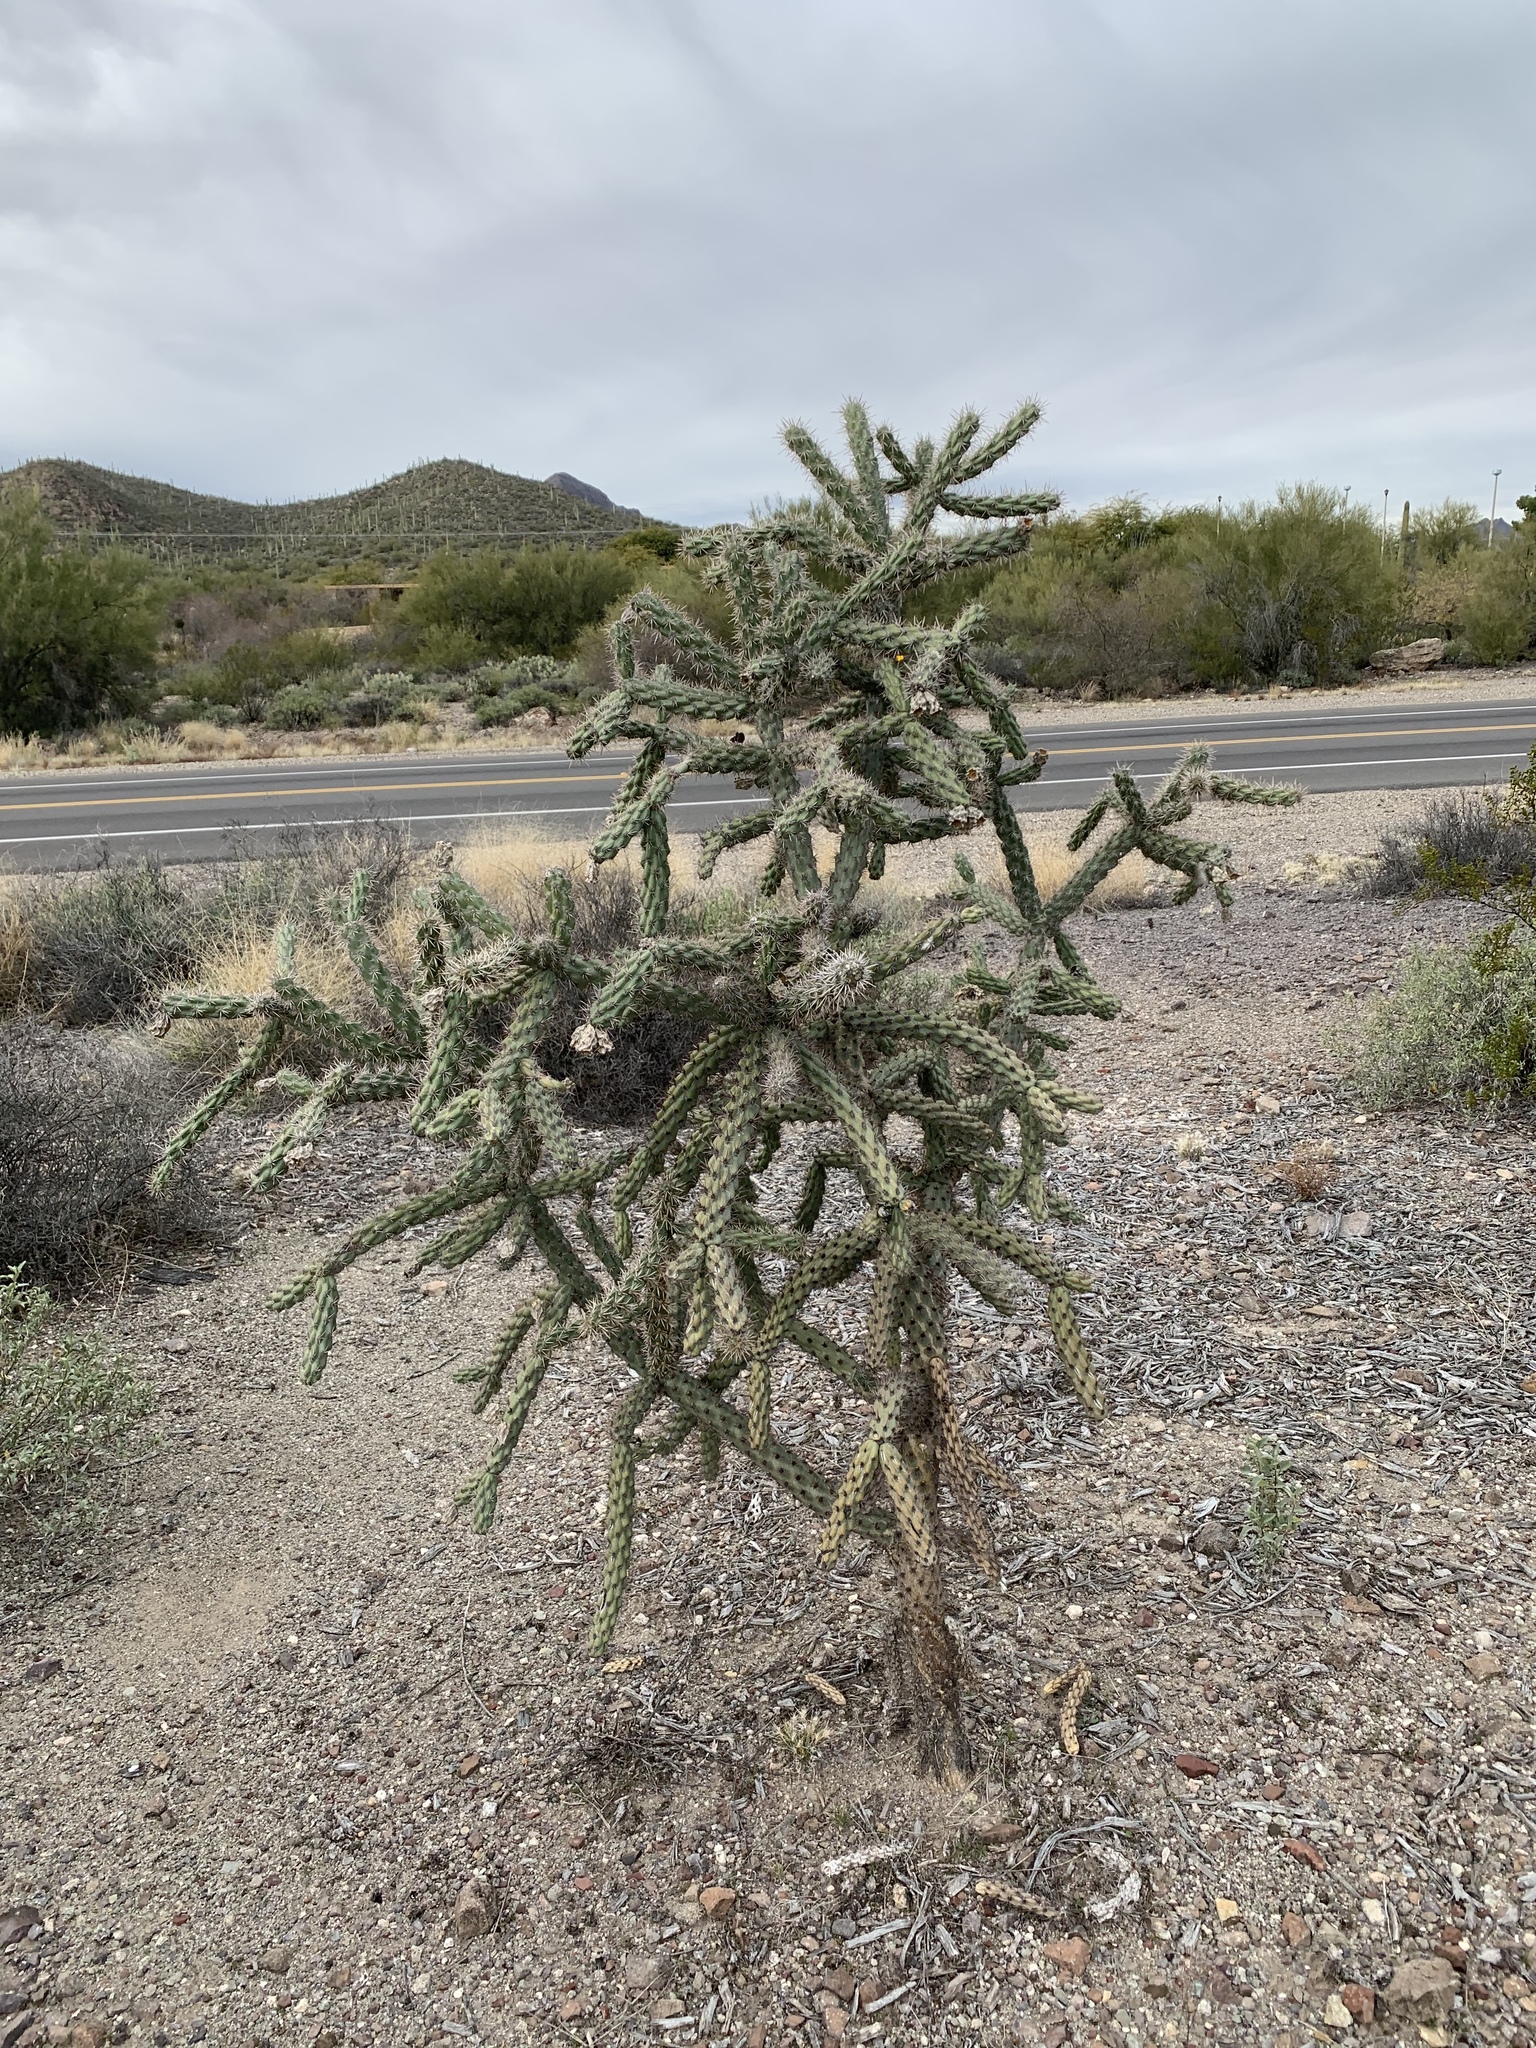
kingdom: Plantae
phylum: Tracheophyta
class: Magnoliopsida
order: Caryophyllales
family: Cactaceae
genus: Cylindropuntia
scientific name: Cylindropuntia imbricata
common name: Candelabrum cactus
